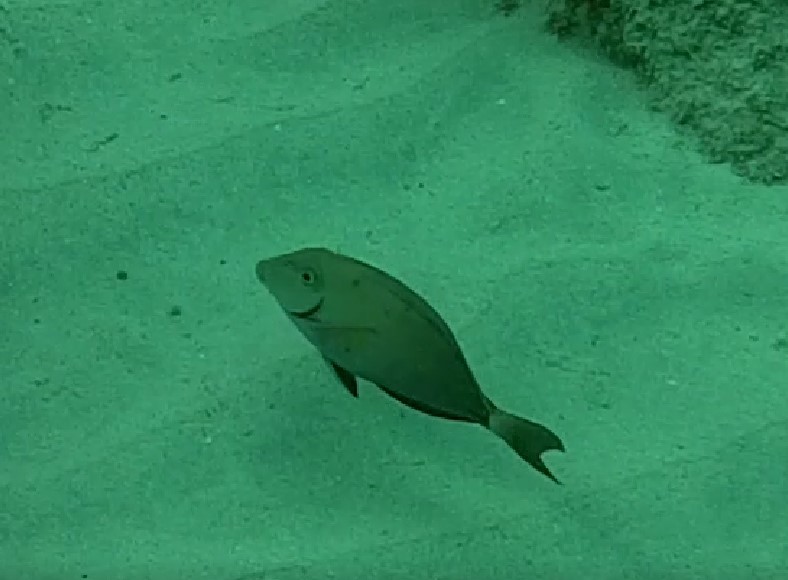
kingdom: Animalia
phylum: Chordata
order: Perciformes
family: Acanthuridae
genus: Acanthurus
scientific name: Acanthurus bahianus
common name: Ocean surgeon
